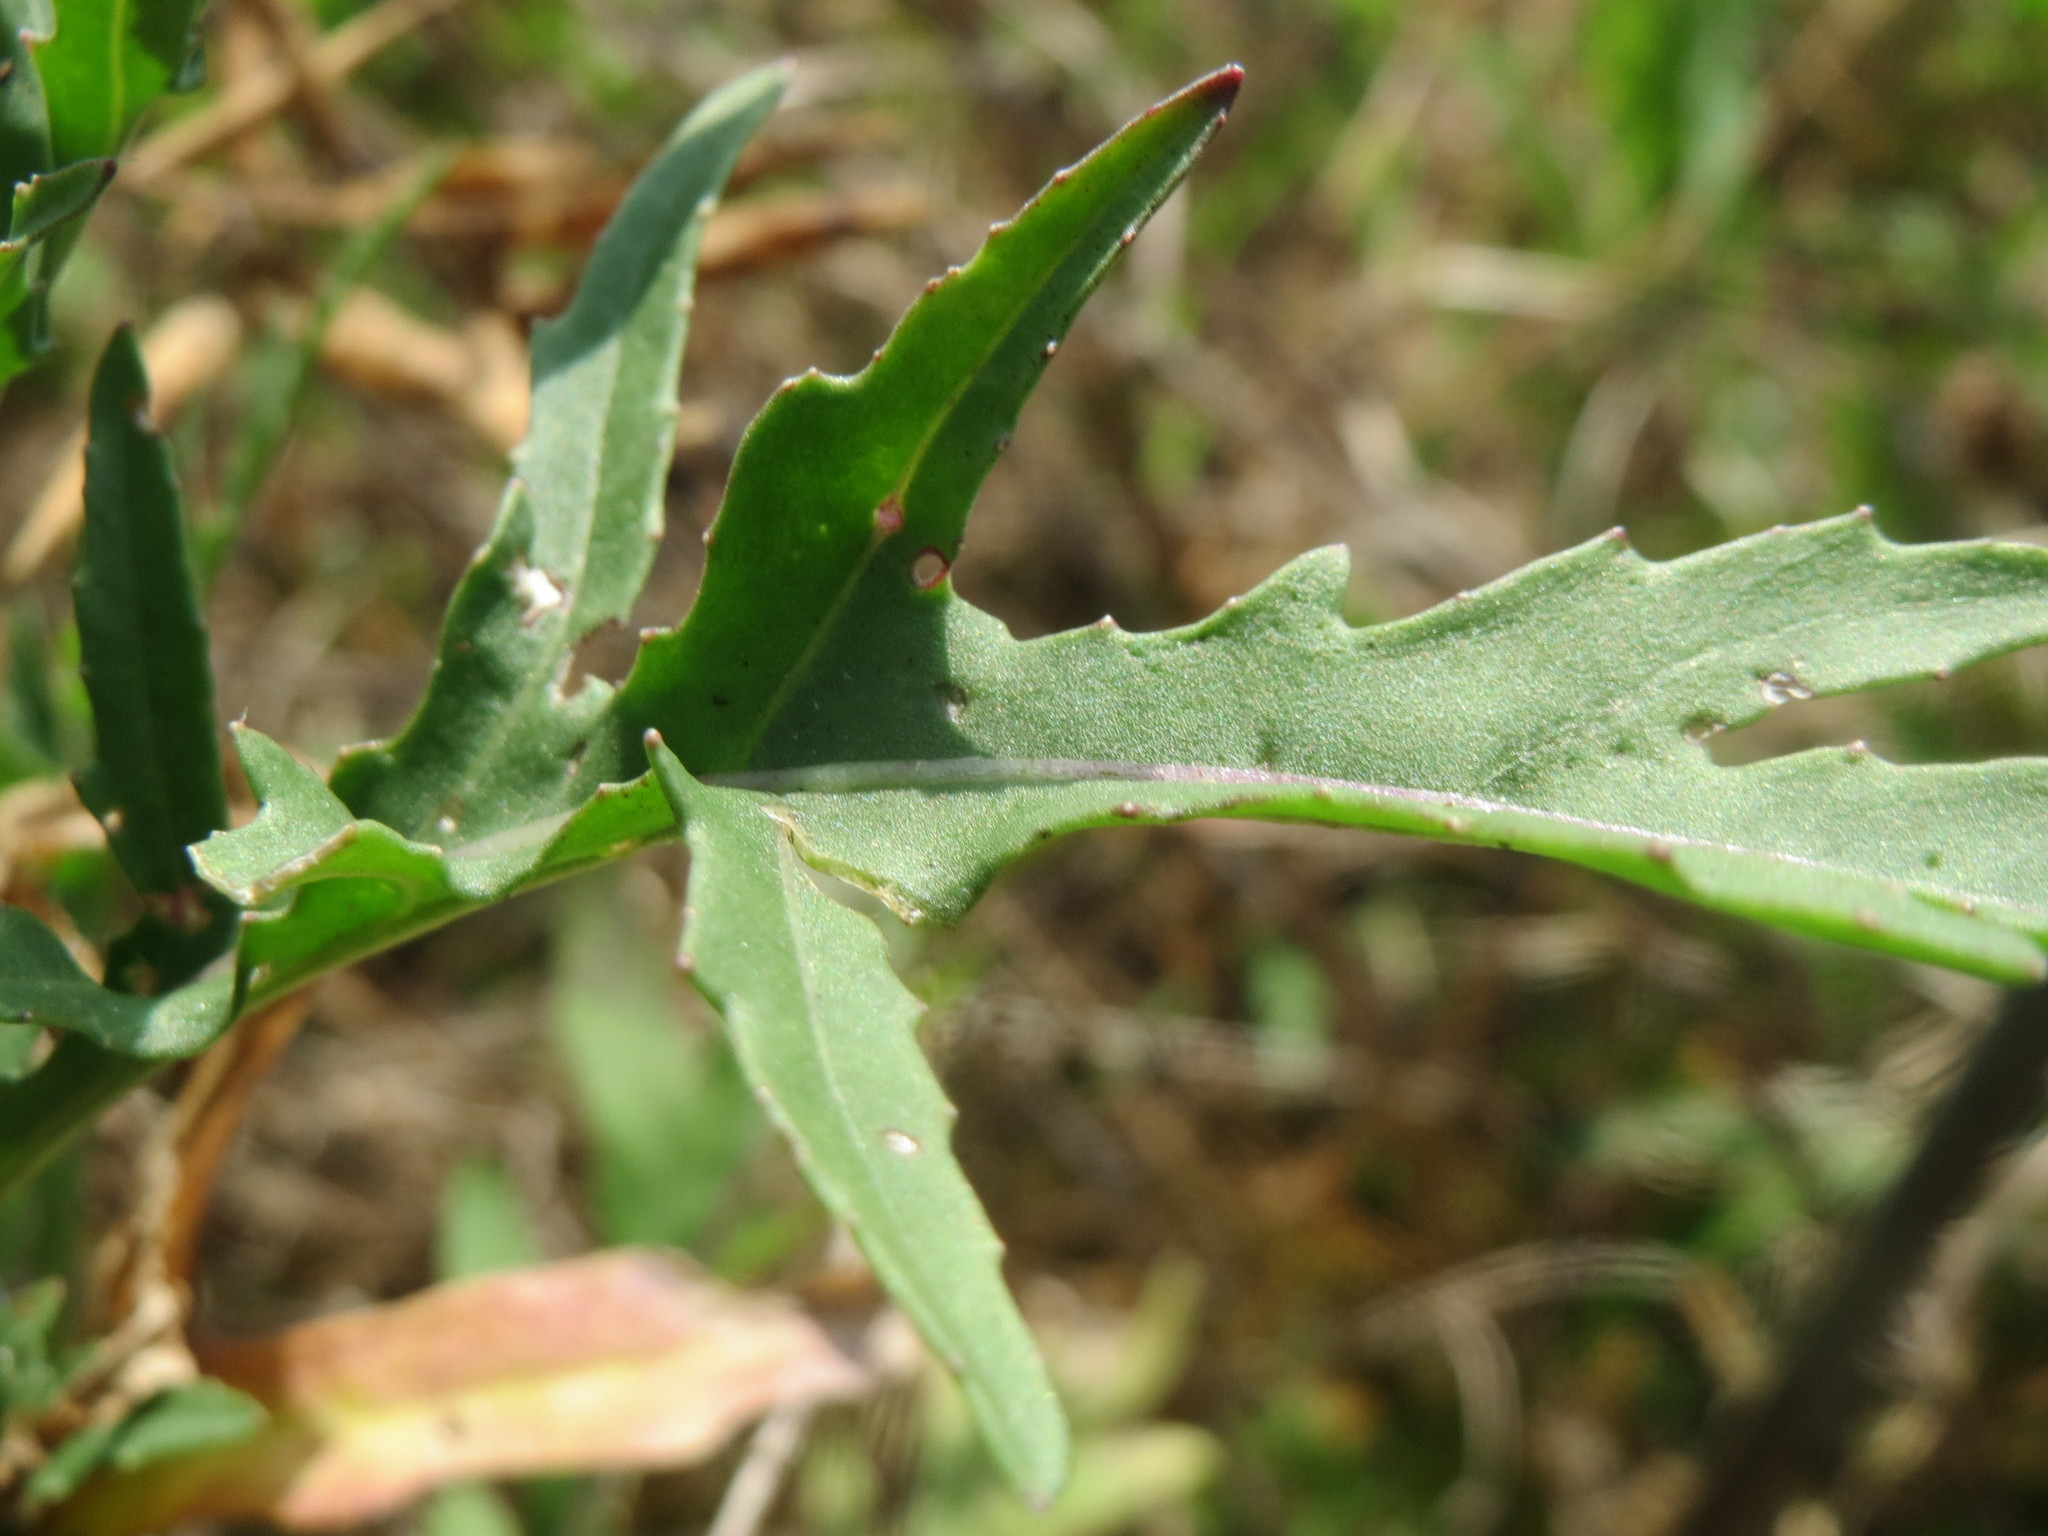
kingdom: Plantae
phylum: Tracheophyta
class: Magnoliopsida
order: Brassicales
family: Brassicaceae
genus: Diplotaxis
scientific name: Diplotaxis tenuifolia
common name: Perennial wall-rocket
